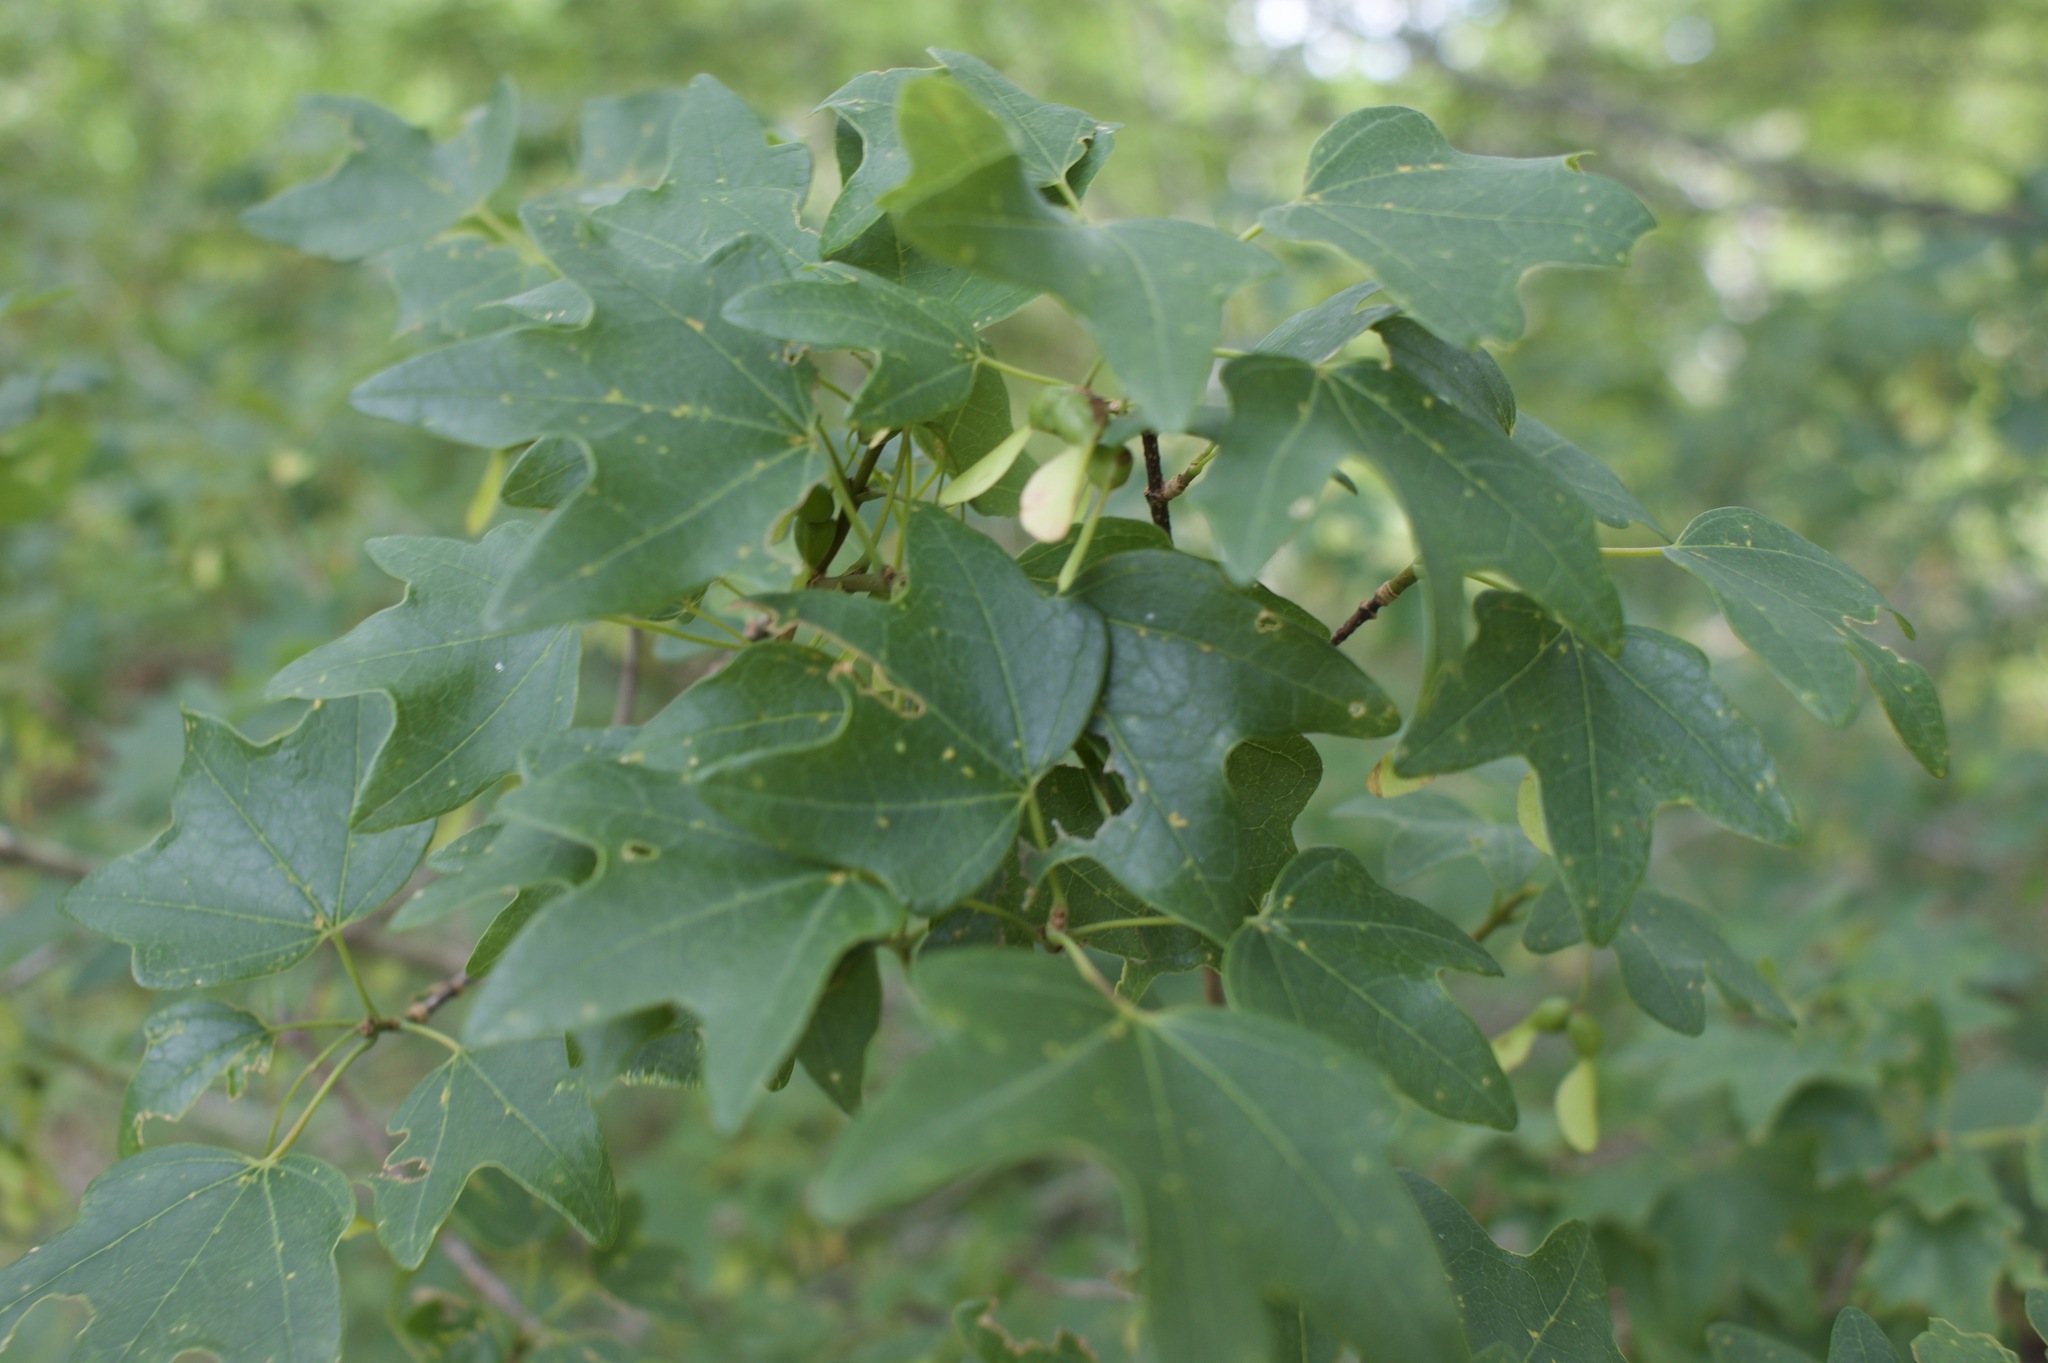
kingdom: Plantae
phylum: Tracheophyta
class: Magnoliopsida
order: Sapindales
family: Sapindaceae
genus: Acer
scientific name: Acer grandidentatum
